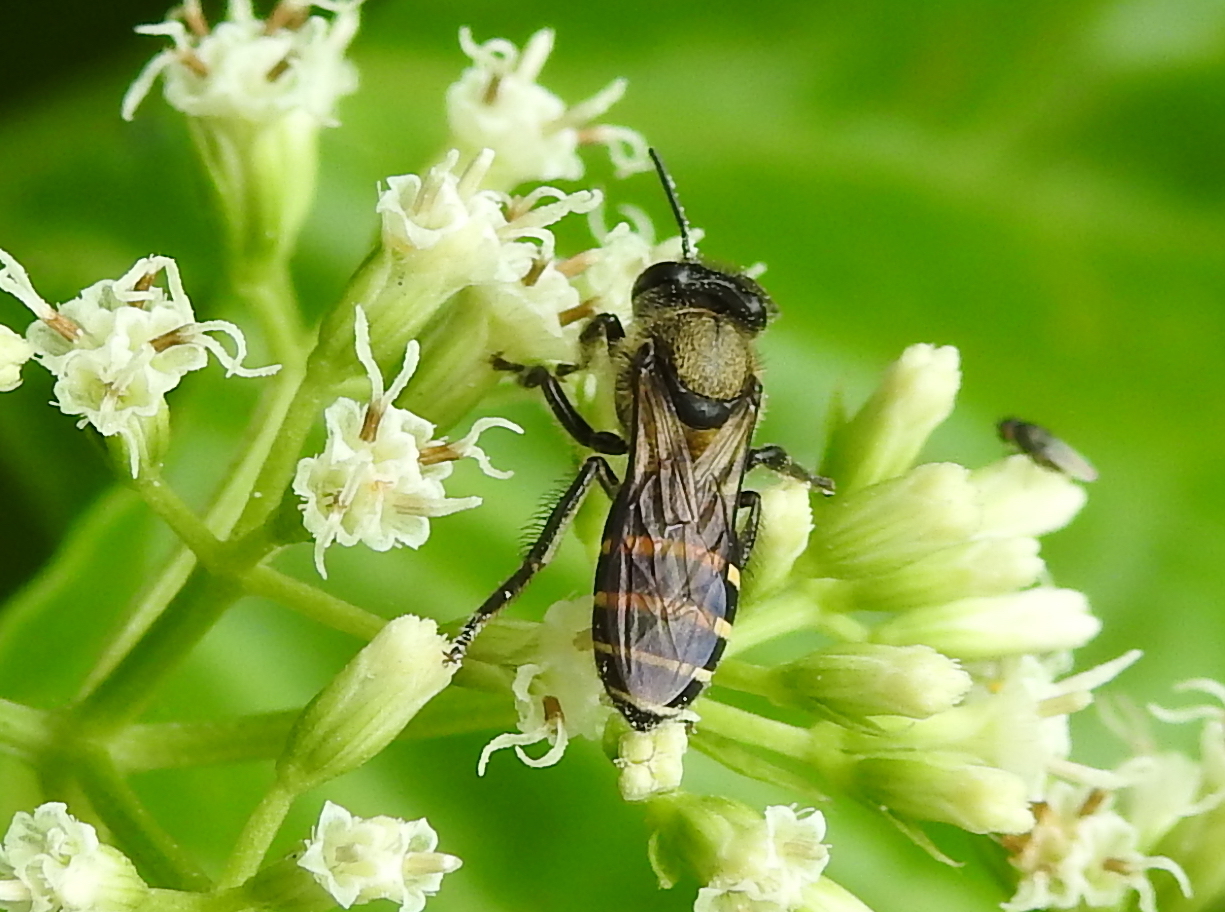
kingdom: Animalia
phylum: Arthropoda
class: Insecta
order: Hymenoptera
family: Apidae
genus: Apis
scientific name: Apis andreniformis
